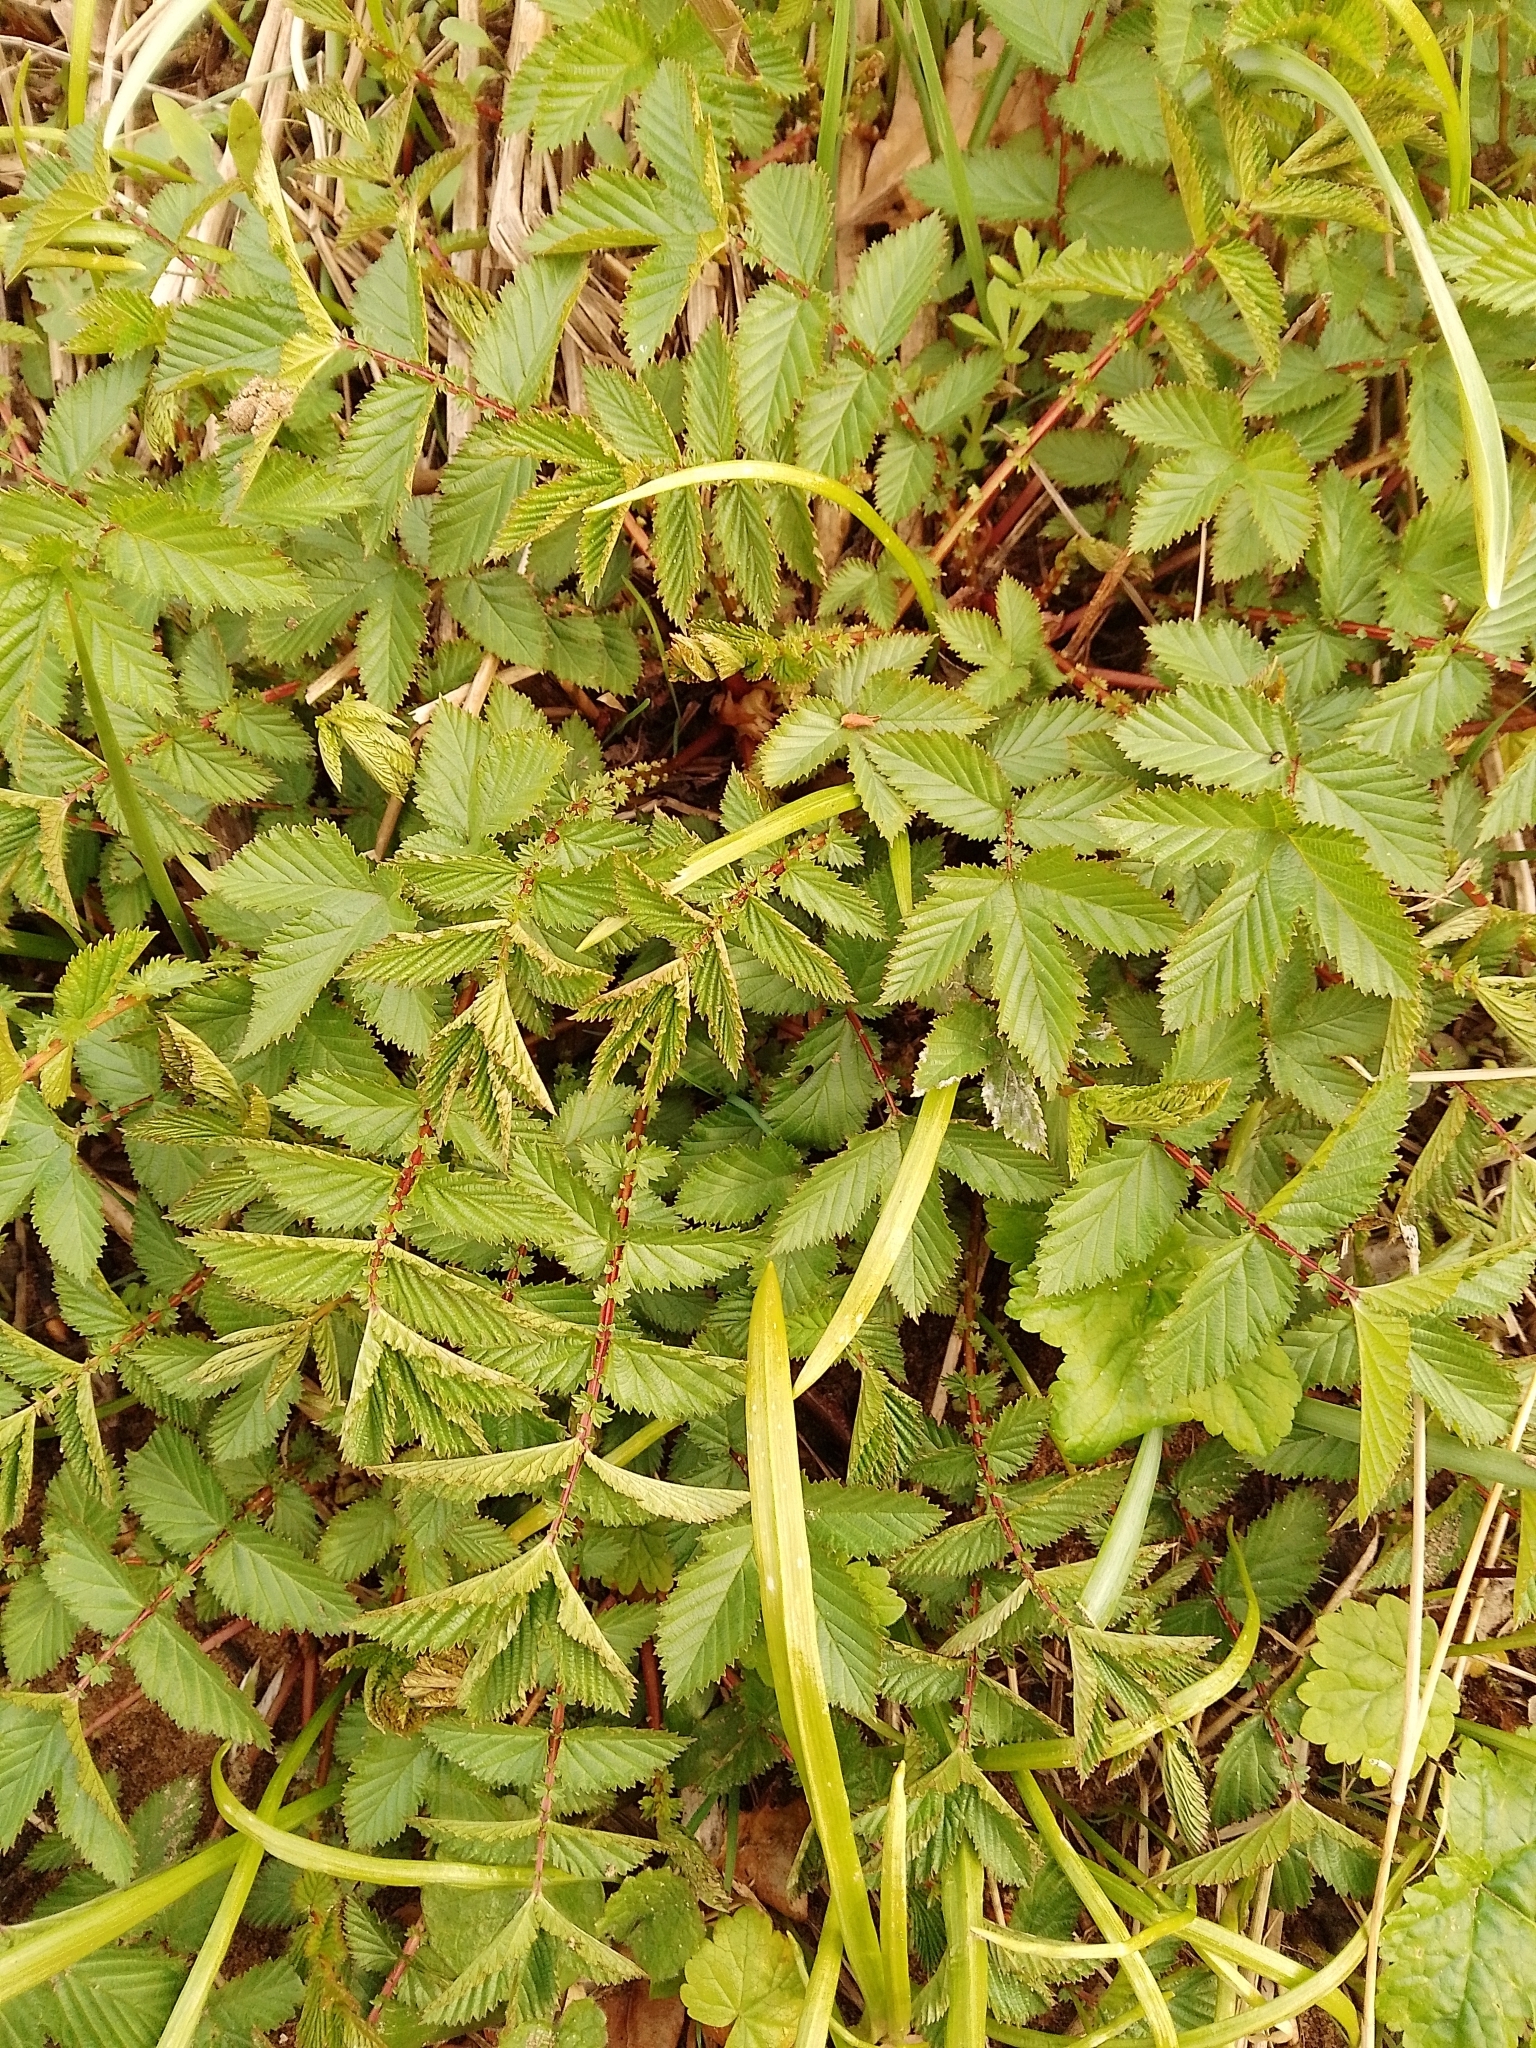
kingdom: Plantae
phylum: Tracheophyta
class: Magnoliopsida
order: Rosales
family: Rosaceae
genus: Filipendula
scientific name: Filipendula ulmaria
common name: Meadowsweet
